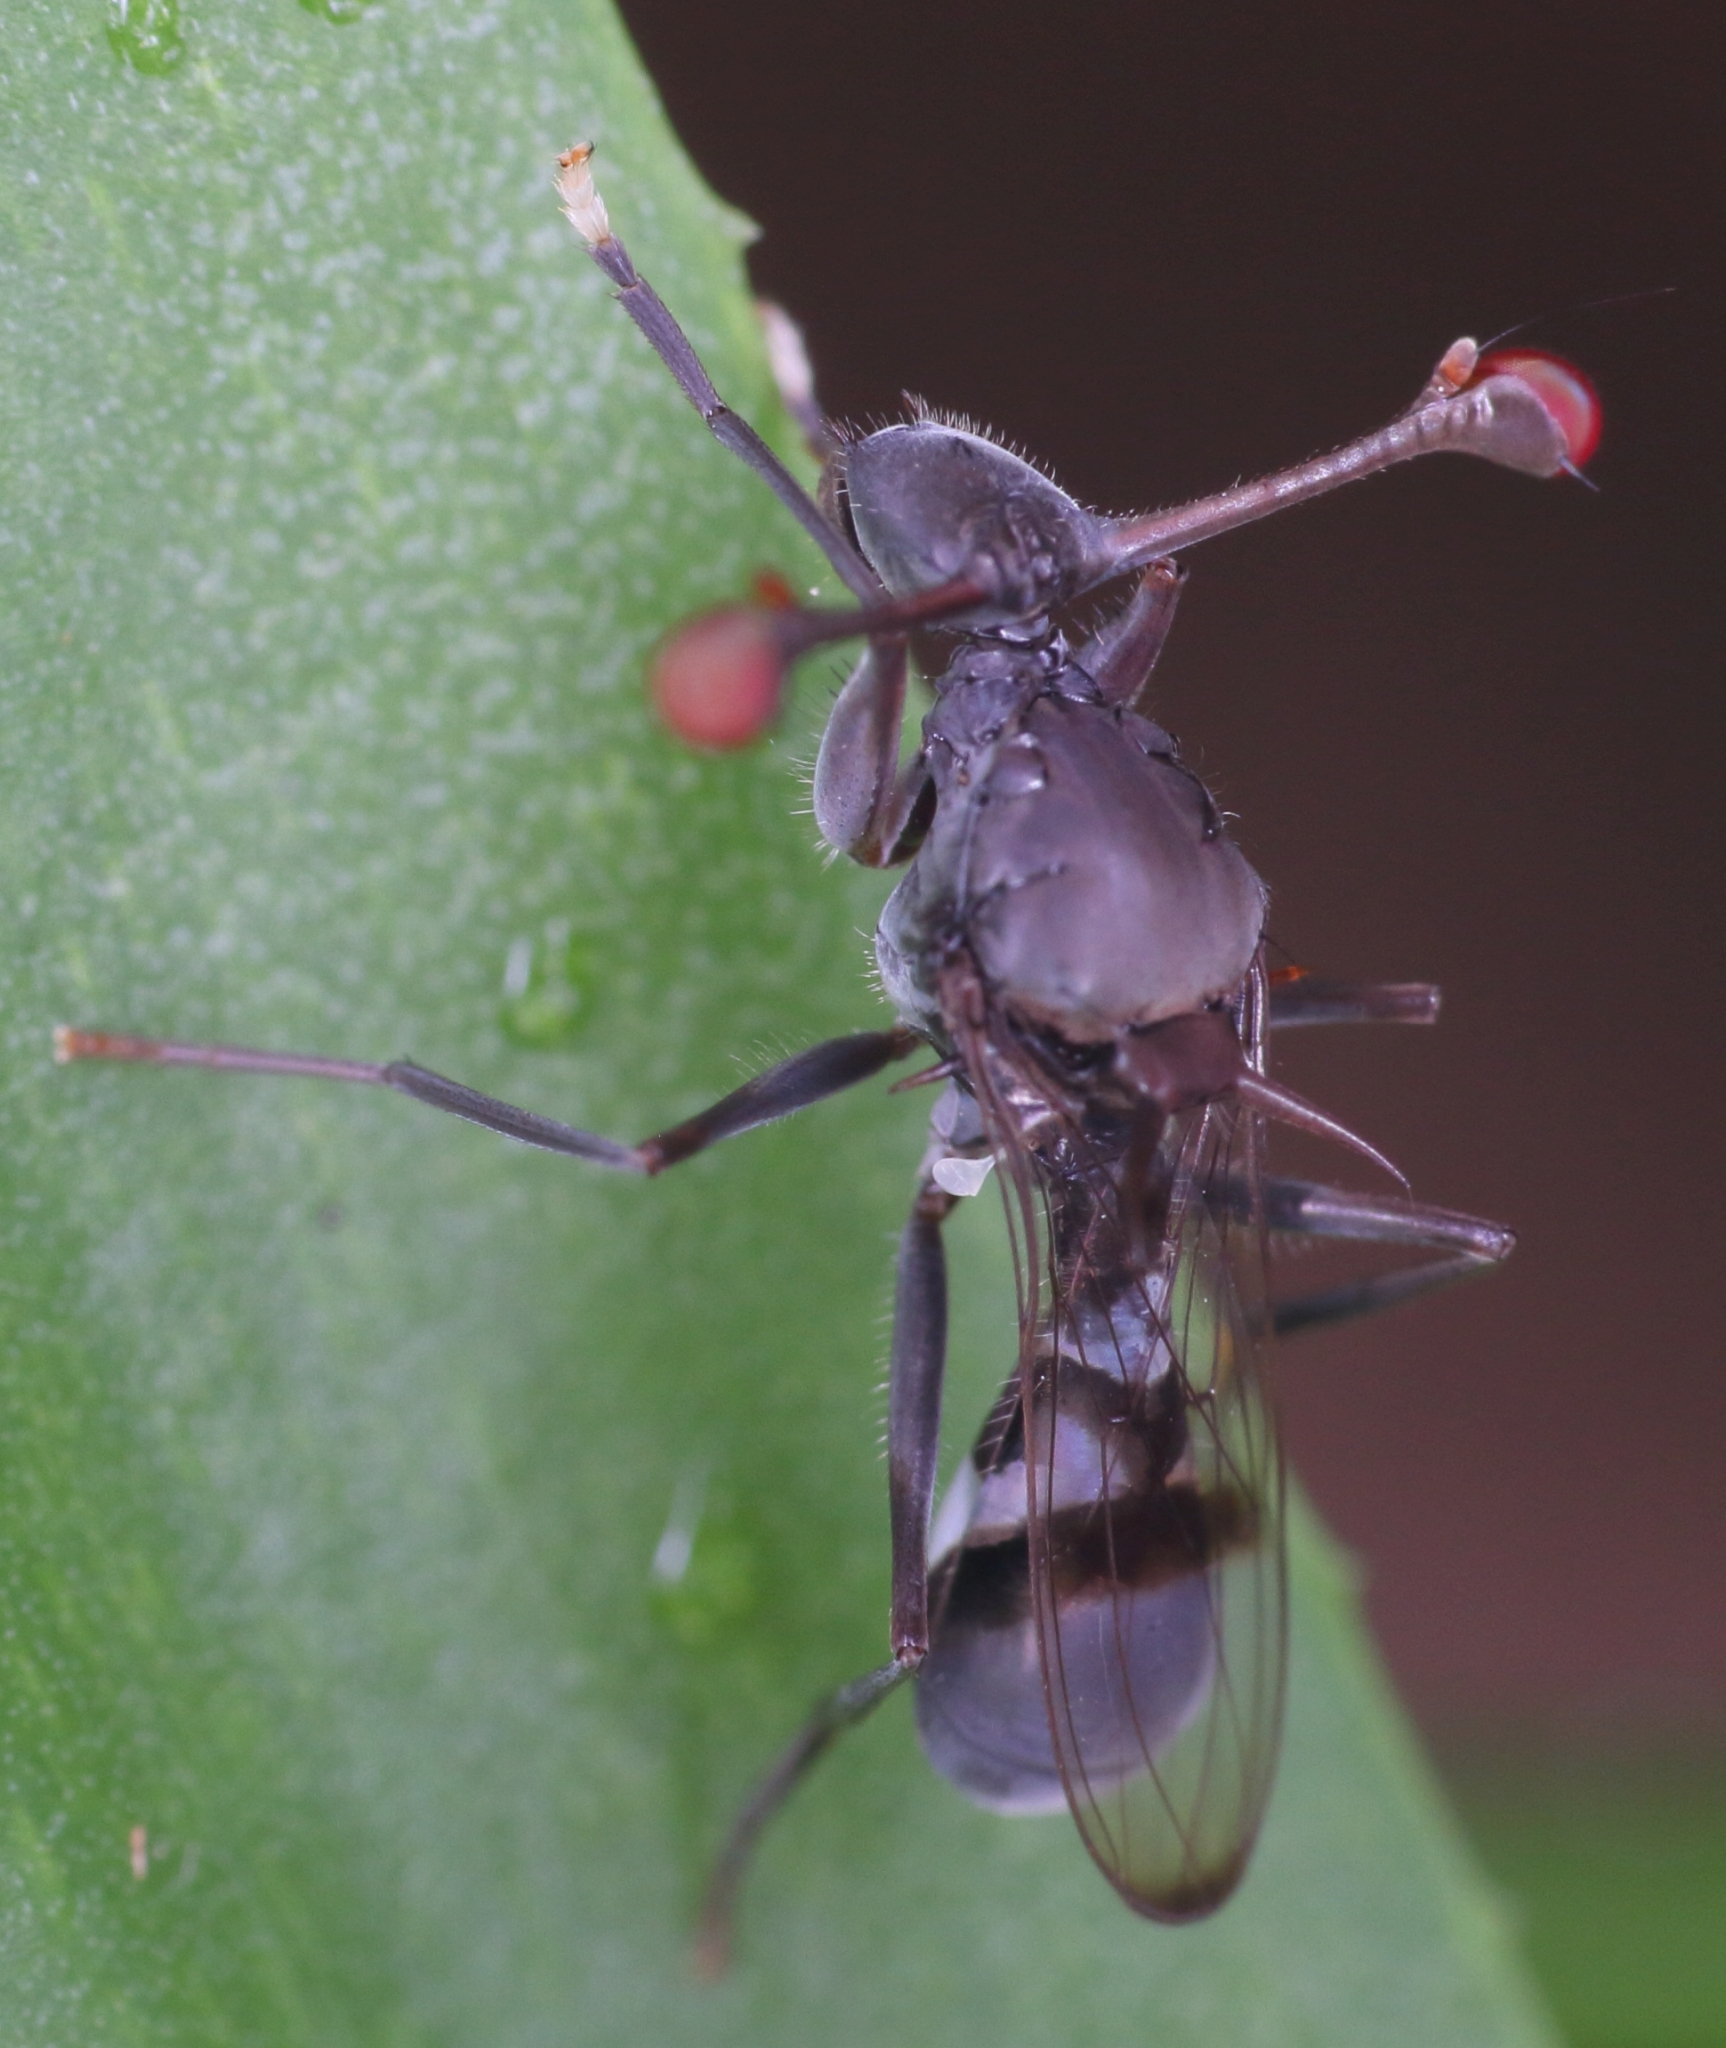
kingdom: Animalia
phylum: Arthropoda
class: Insecta
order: Diptera
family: Diopsidae
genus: Chaetodiopsis
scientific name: Chaetodiopsis
